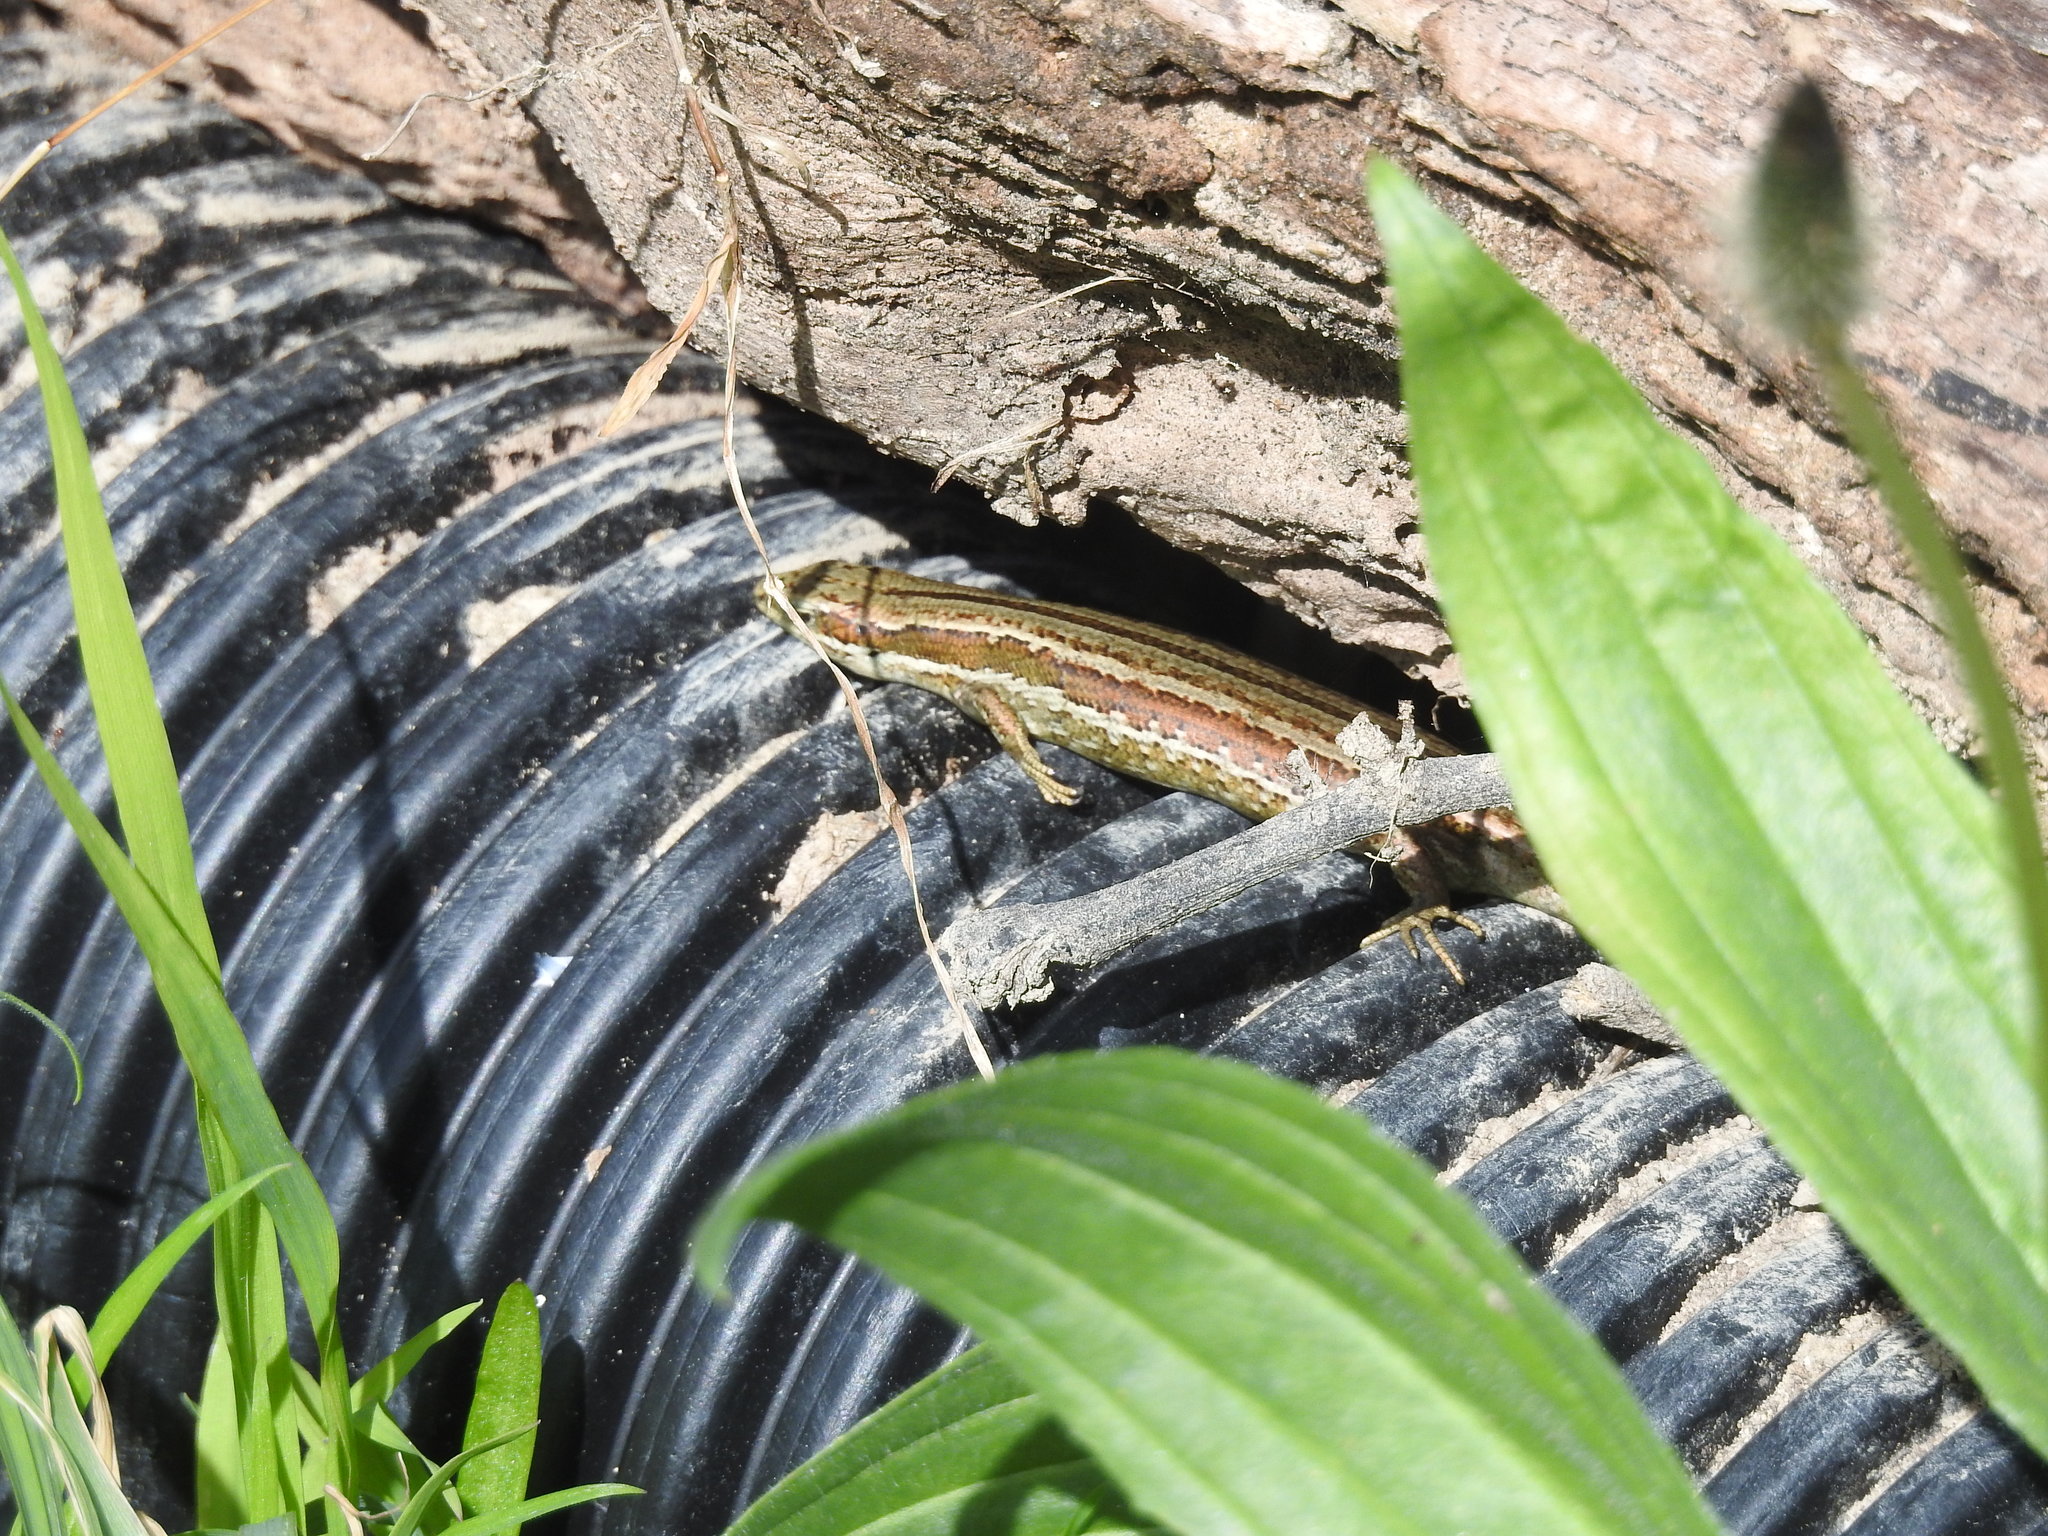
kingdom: Animalia
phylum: Chordata
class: Squamata
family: Scincidae
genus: Oligosoma
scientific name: Oligosoma polychroma
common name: Common new zealand skink
